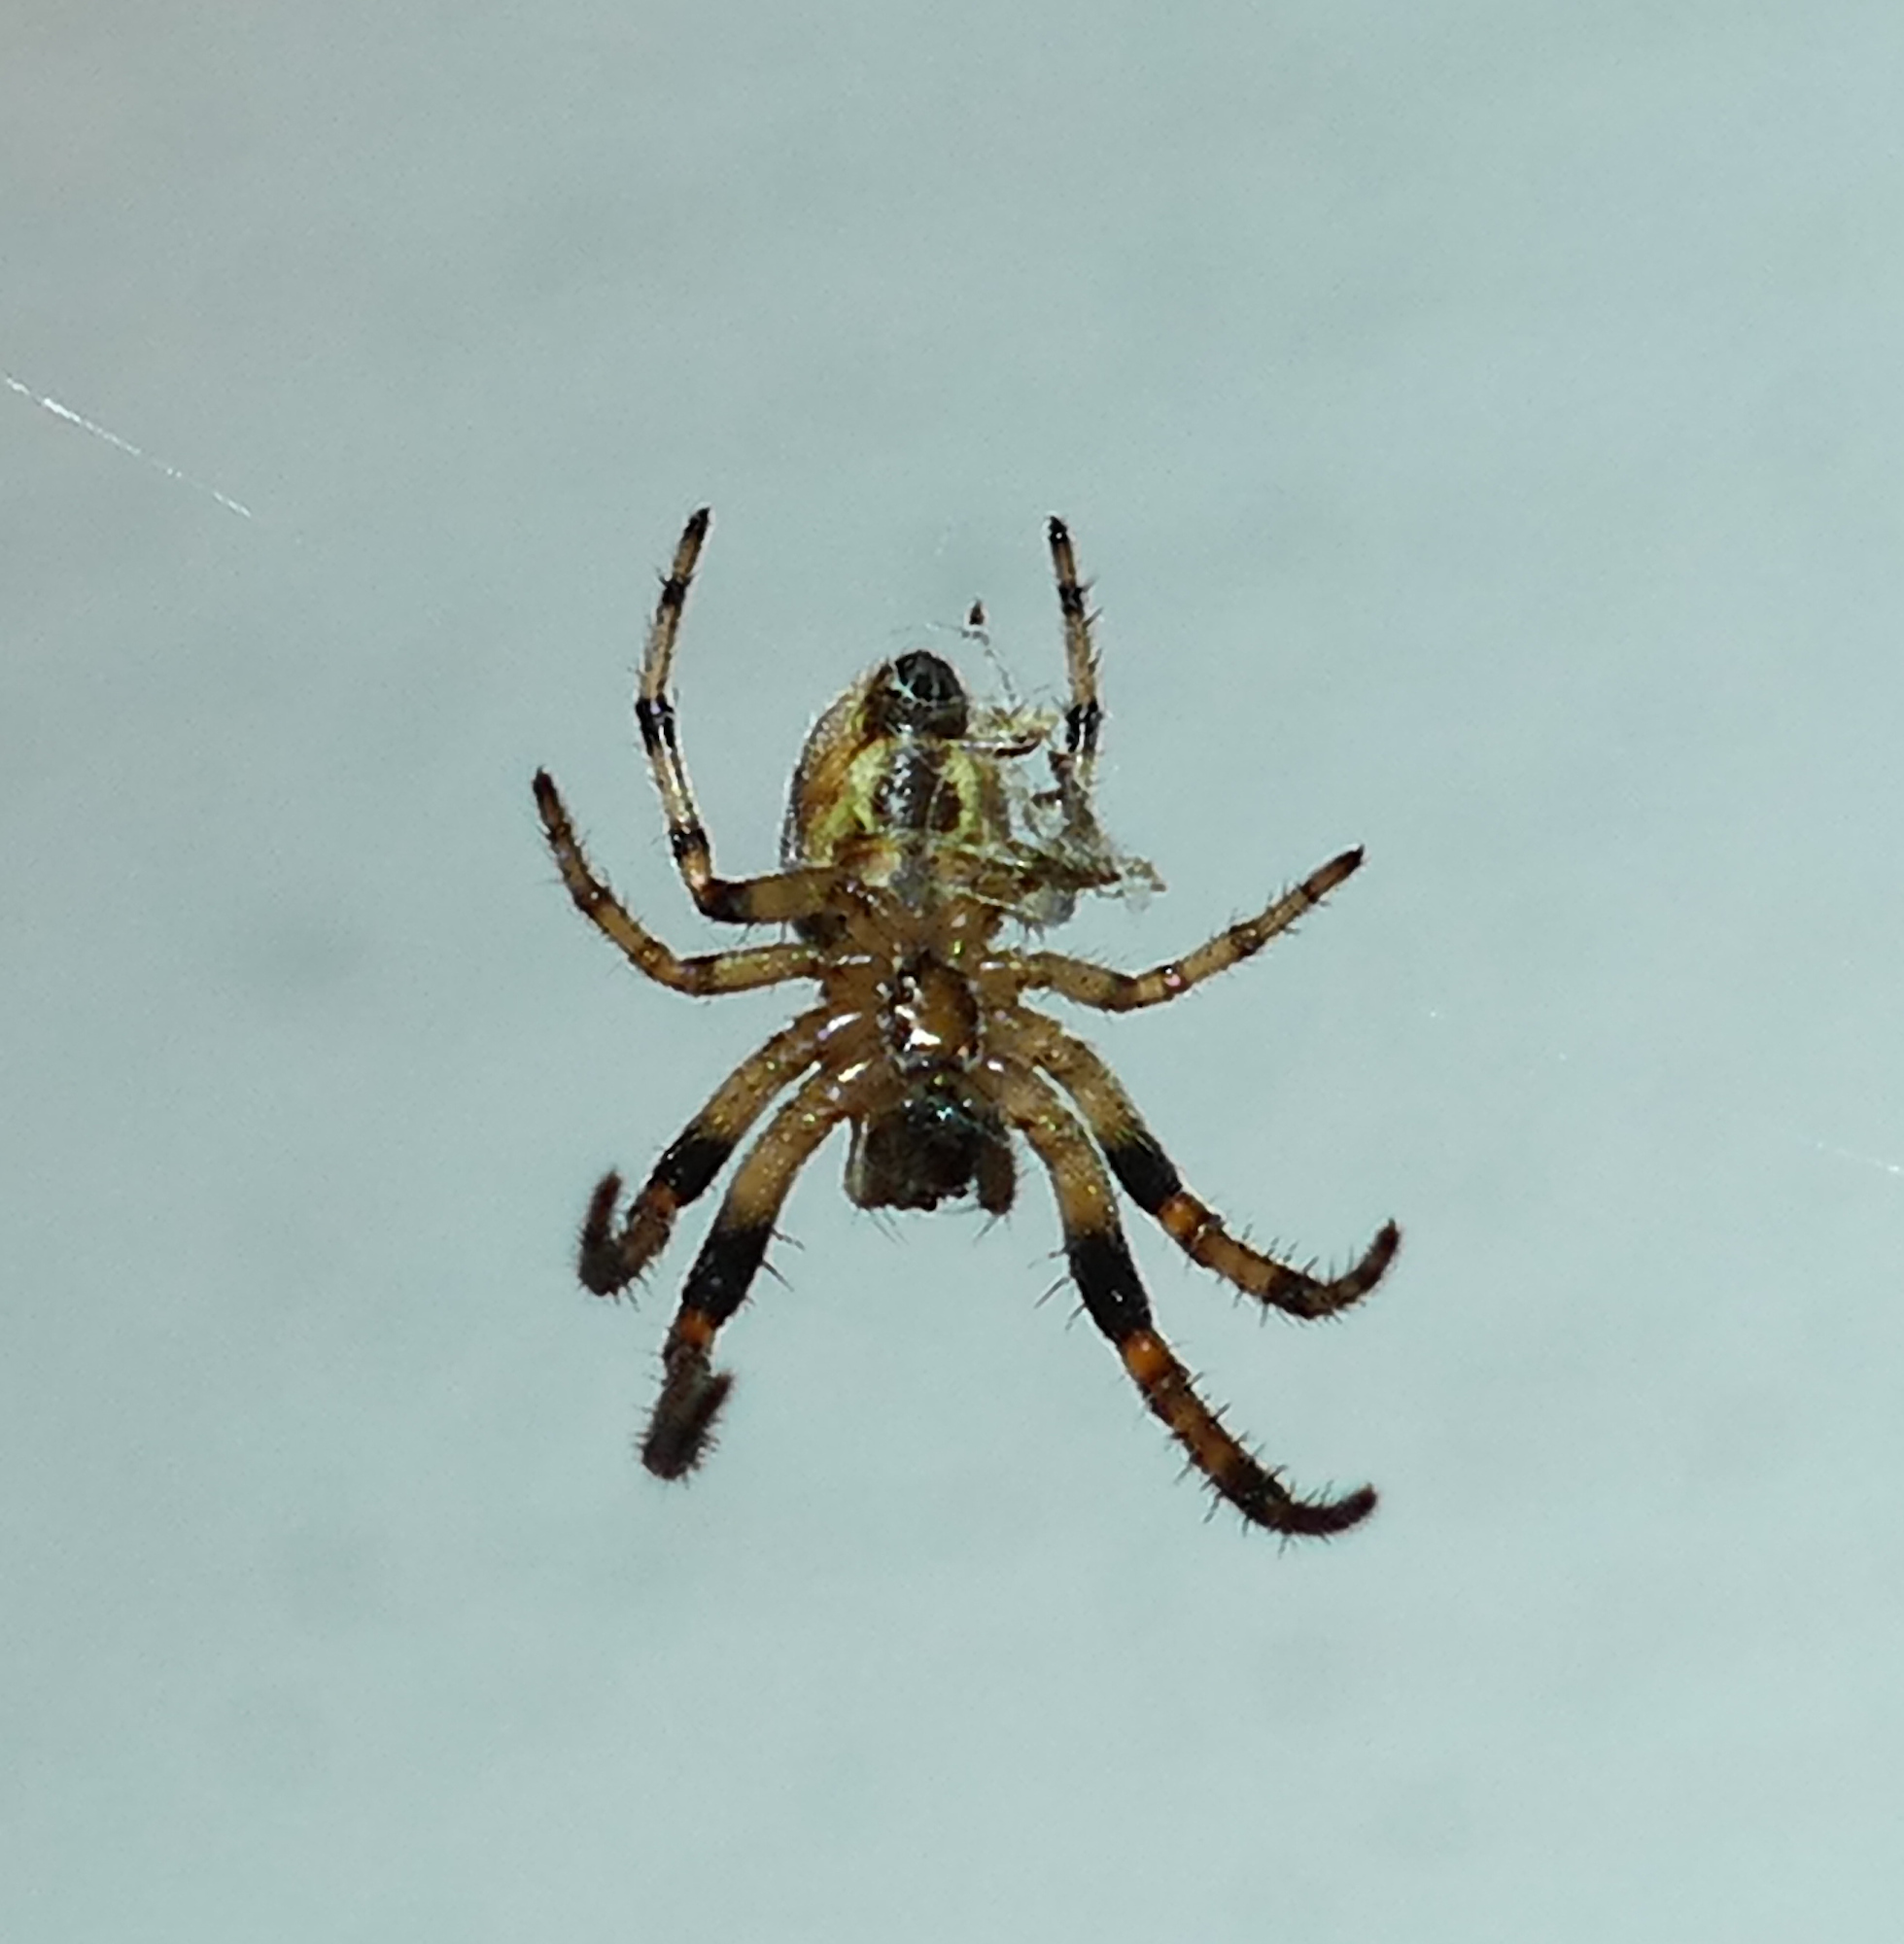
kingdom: Animalia
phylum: Arthropoda
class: Arachnida
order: Araneae
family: Araneidae
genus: Larinioides
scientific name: Larinioides cornutus
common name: Furrow orbweaver
